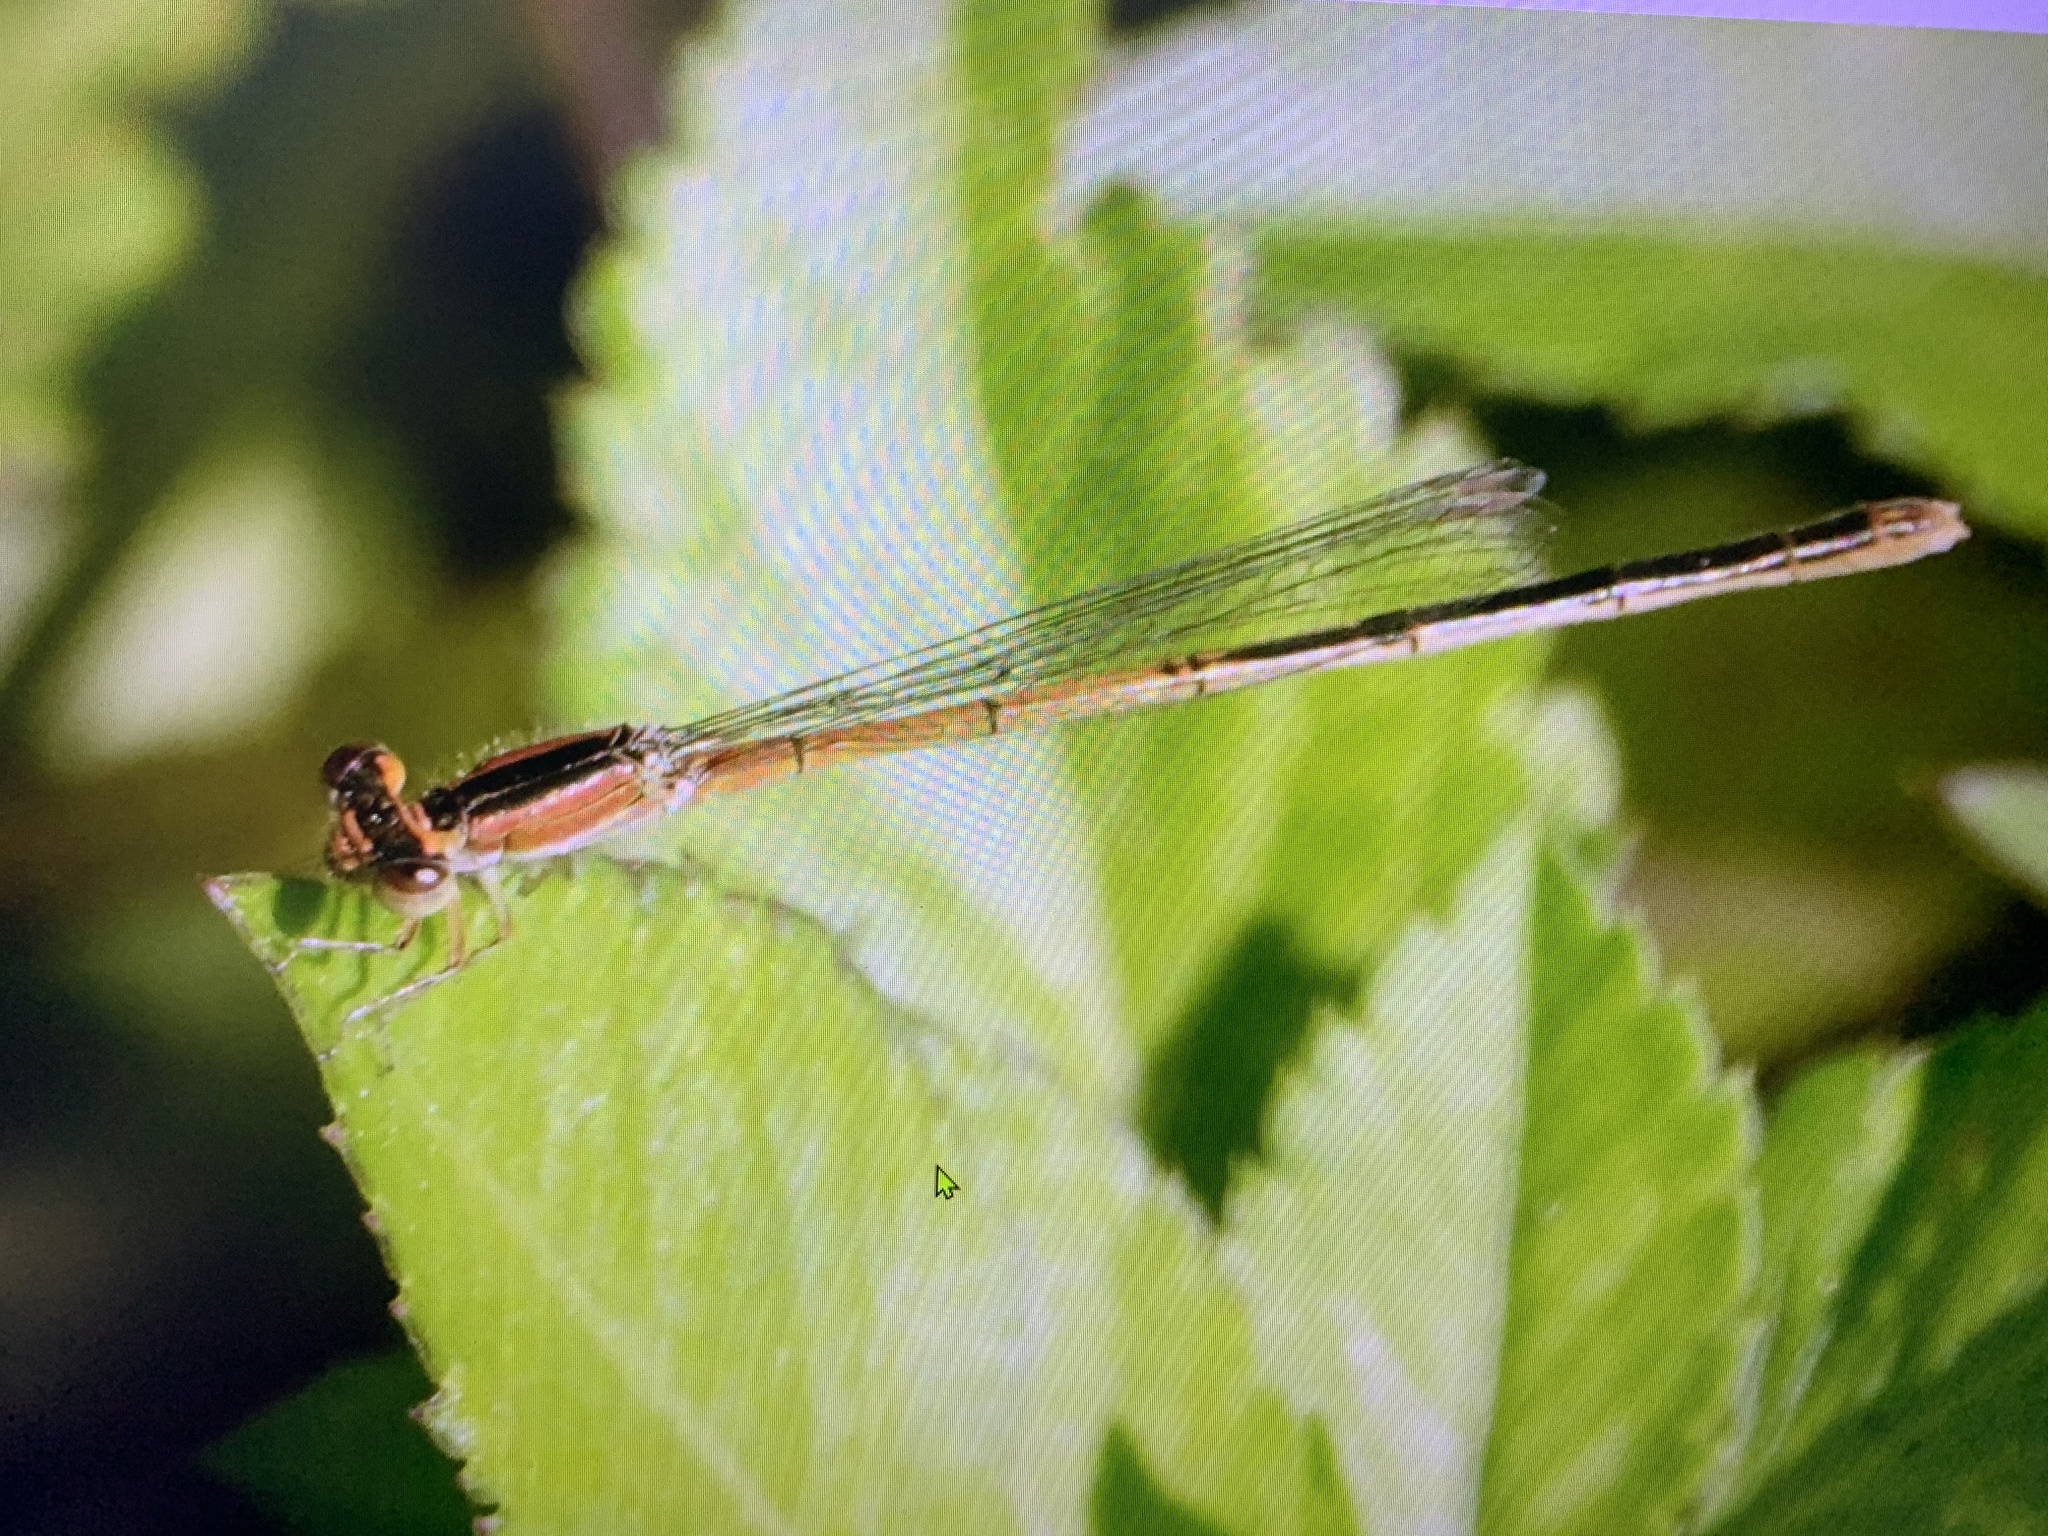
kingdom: Animalia
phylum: Arthropoda
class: Insecta
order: Odonata
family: Coenagrionidae
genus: Ischnura
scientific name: Ischnura hastata
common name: Citrine forktail
